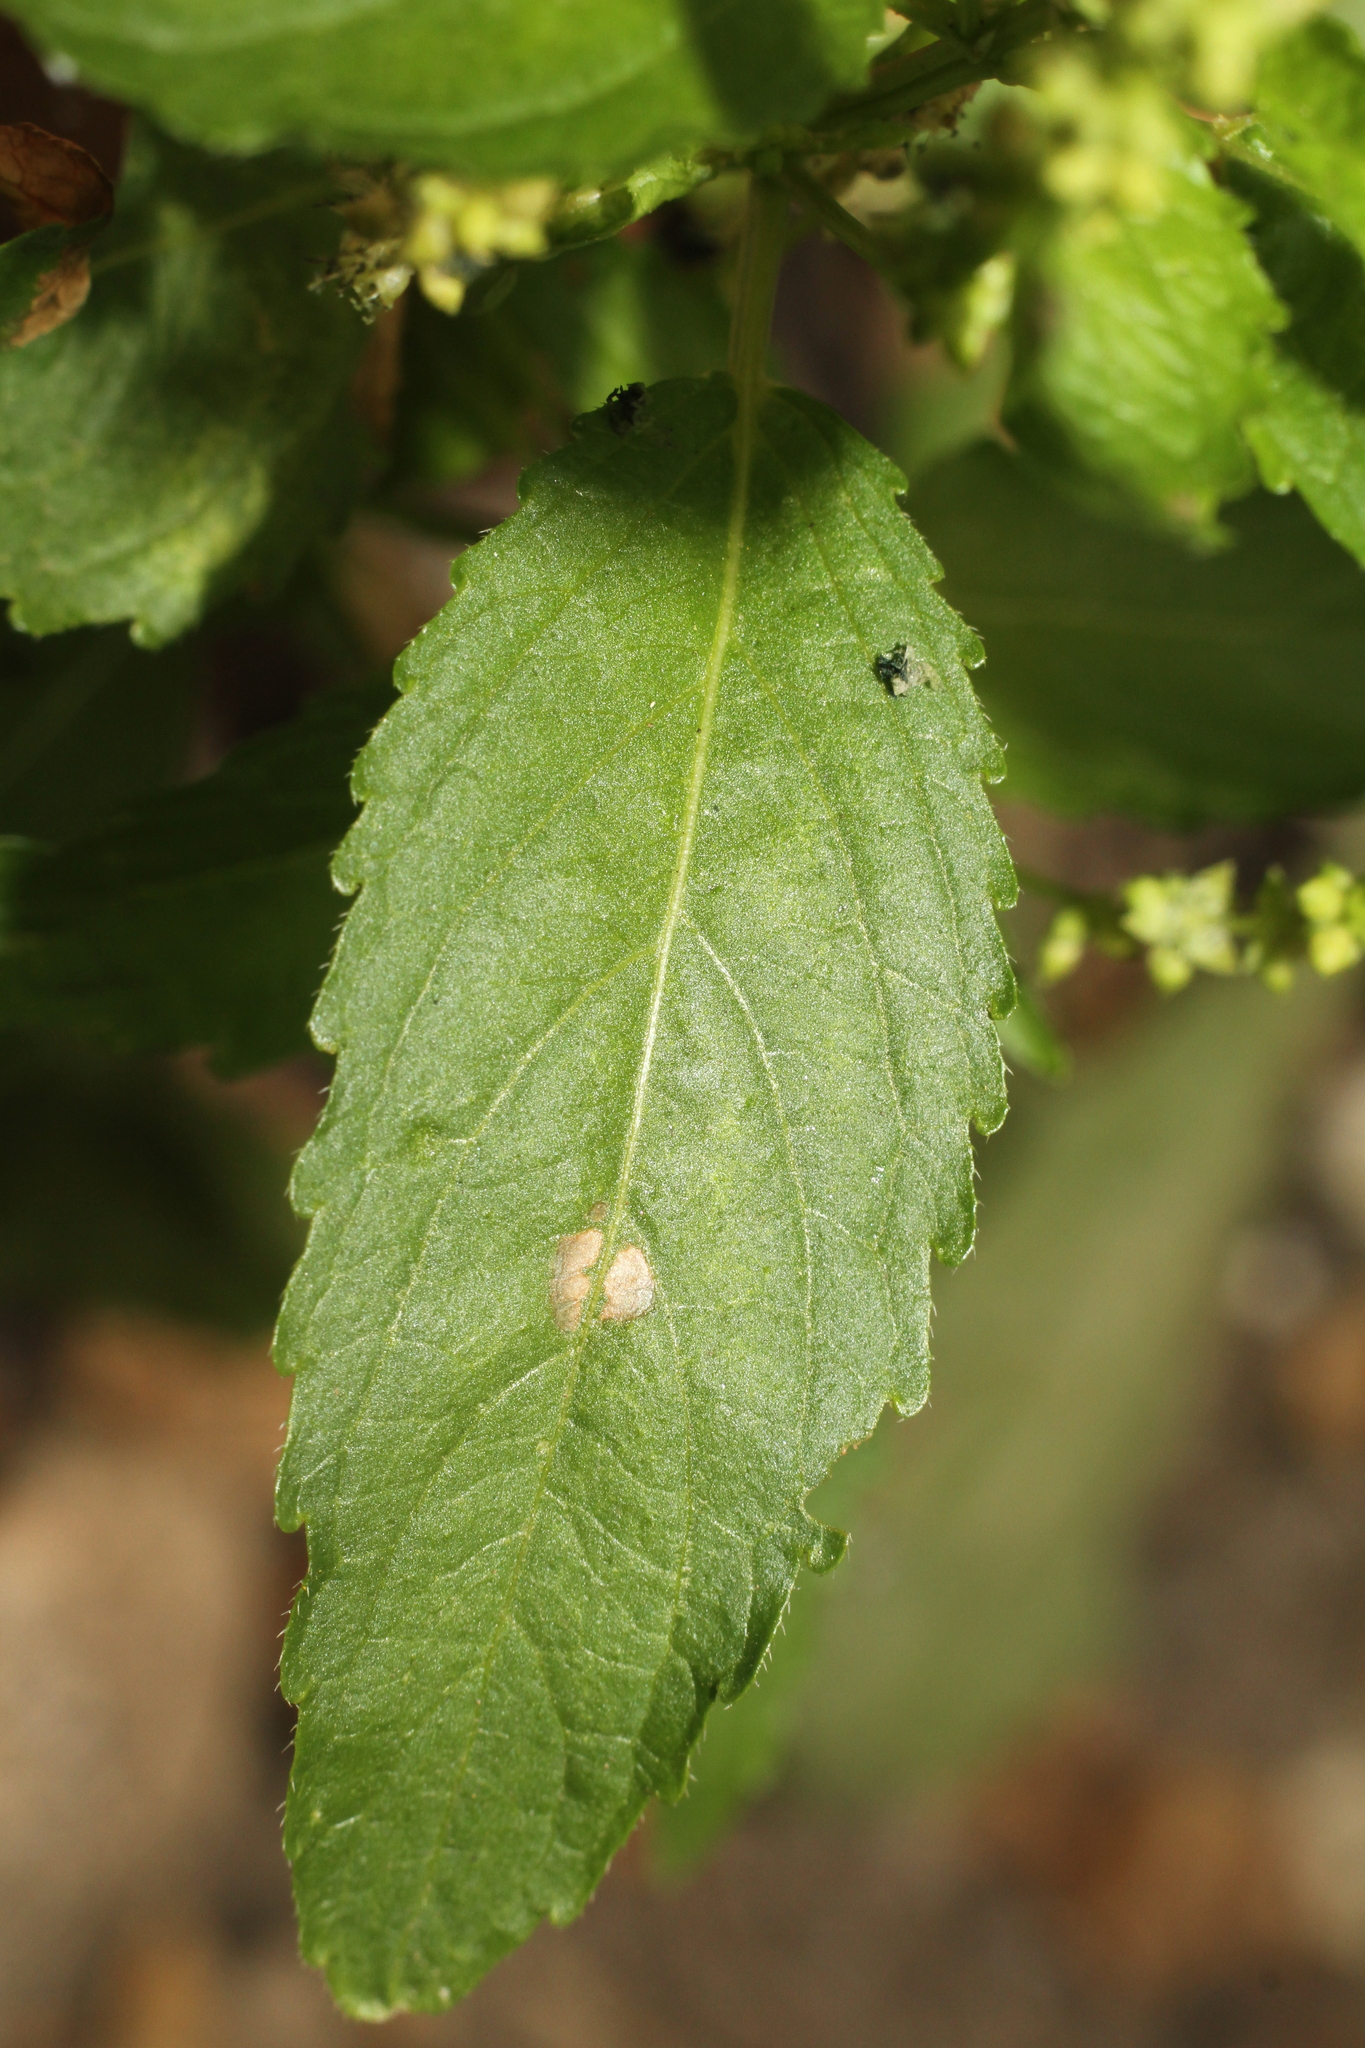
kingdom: Plantae
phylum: Tracheophyta
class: Magnoliopsida
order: Malpighiales
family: Euphorbiaceae
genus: Mercurialis
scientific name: Mercurialis annua
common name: Annual mercury
